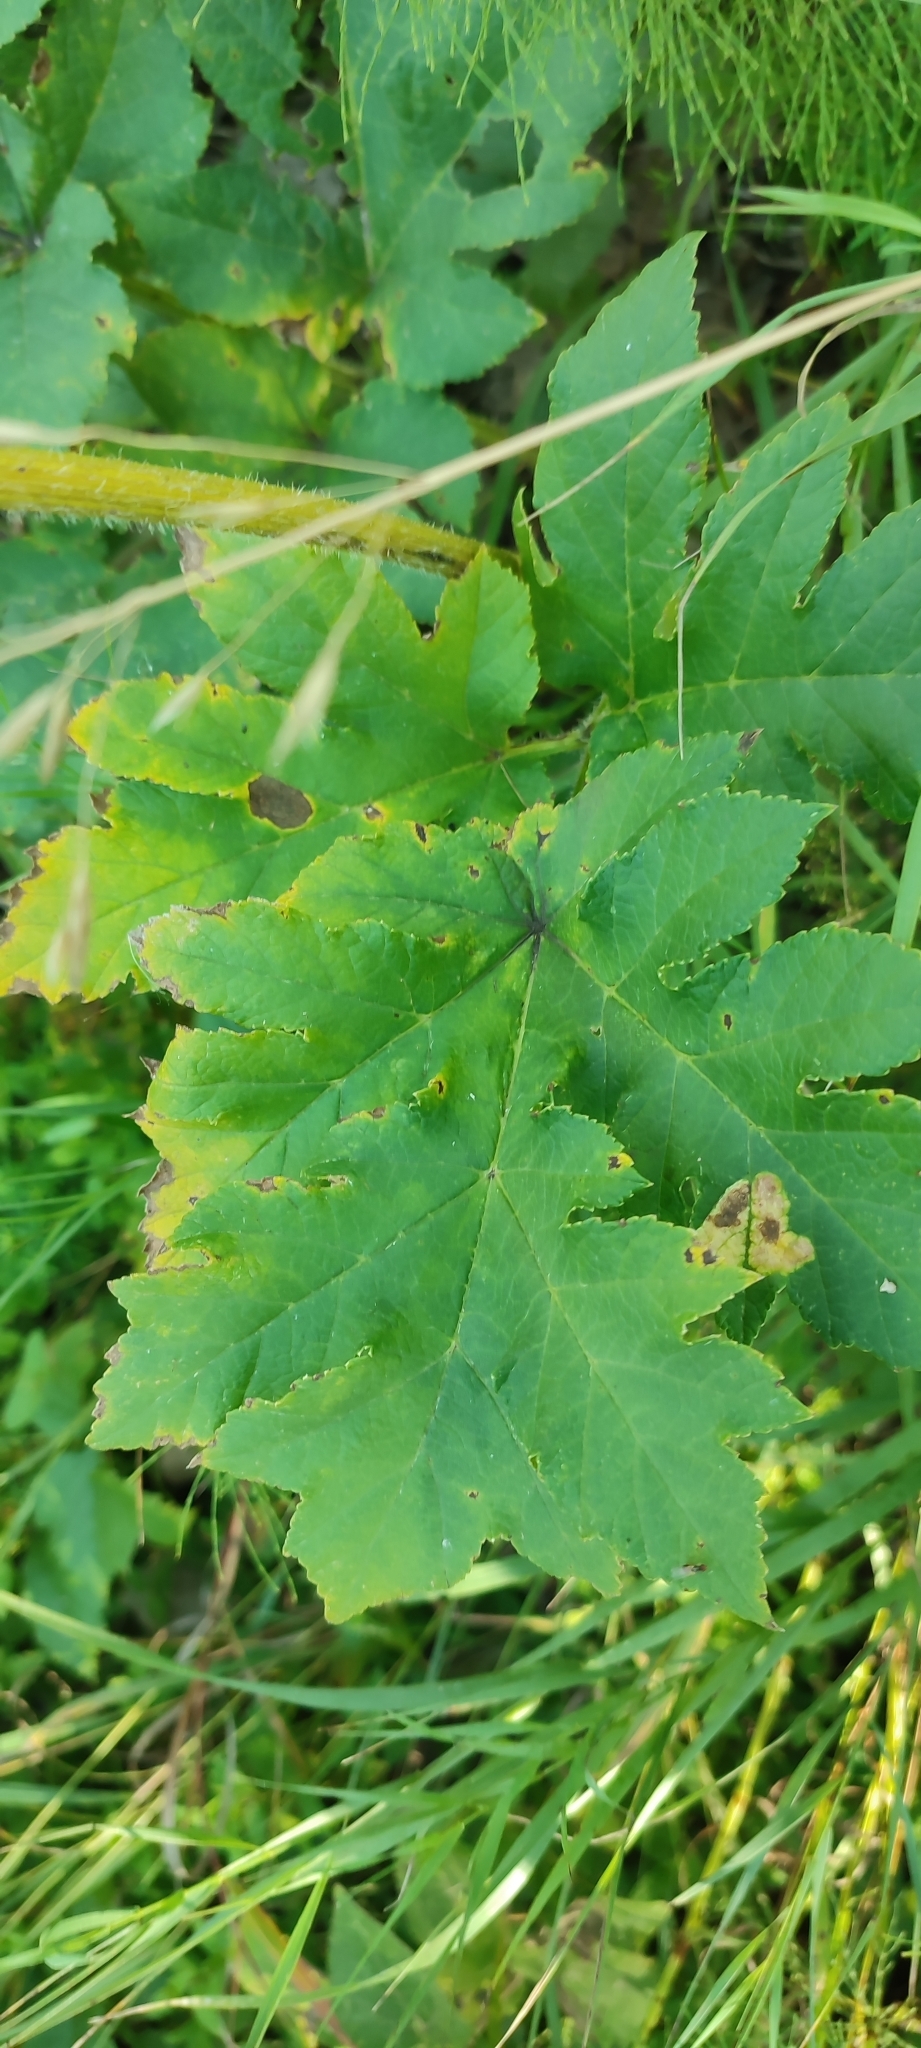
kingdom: Plantae
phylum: Tracheophyta
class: Magnoliopsida
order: Apiales
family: Apiaceae
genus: Heracleum
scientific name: Heracleum sphondylium
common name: Hogweed
